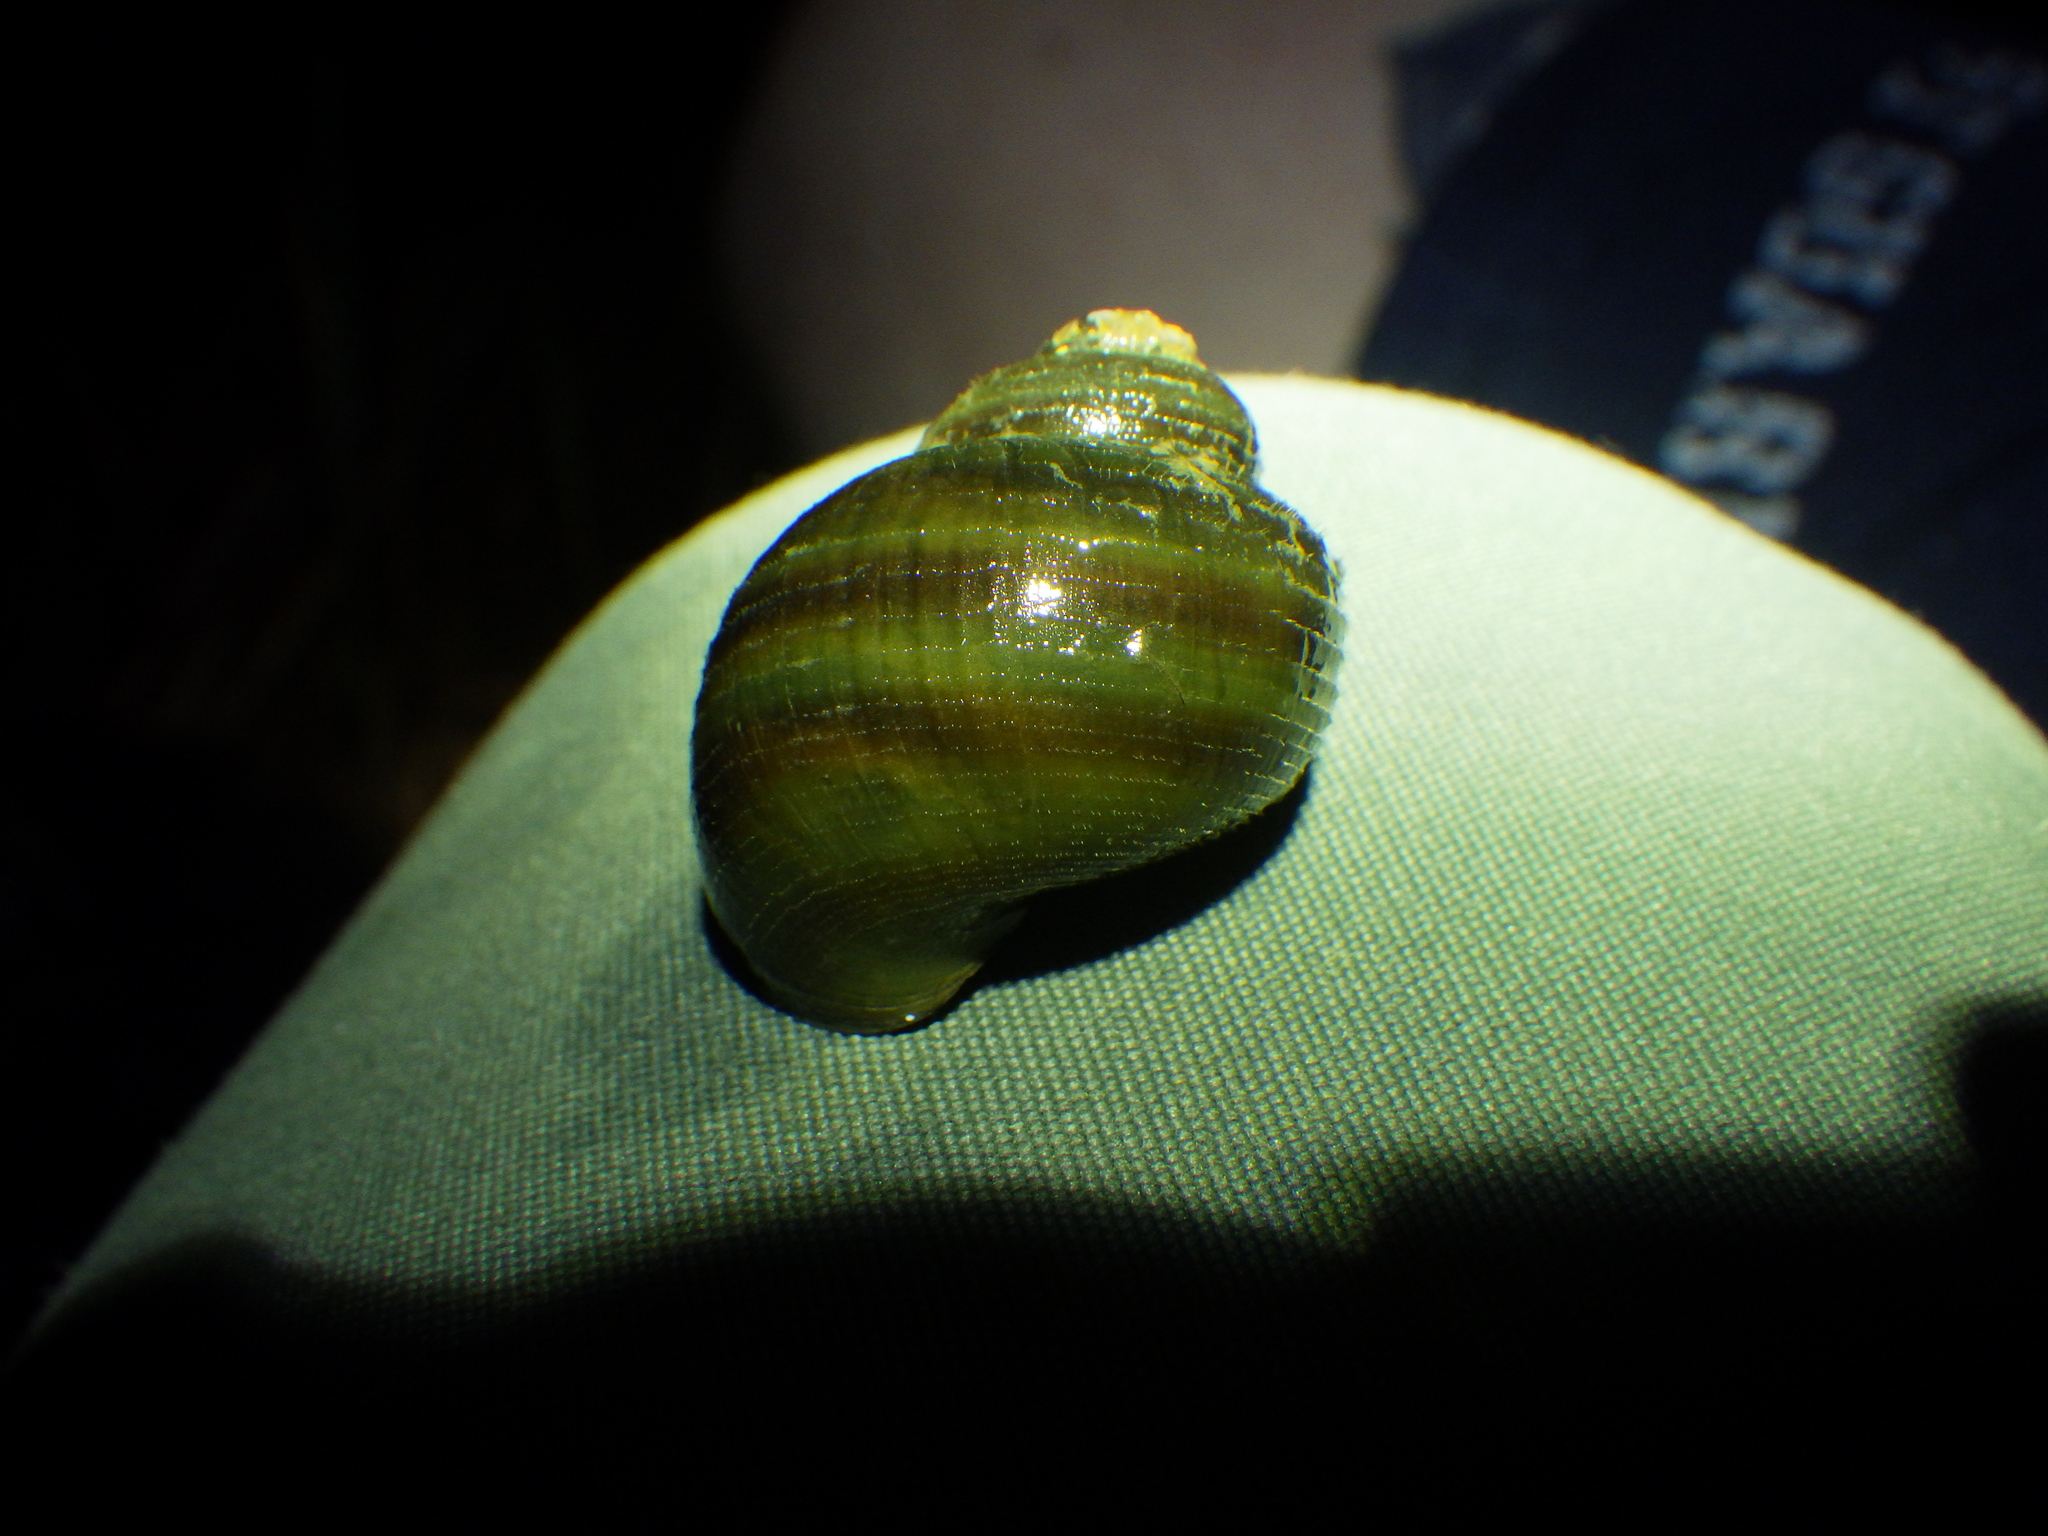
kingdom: Animalia
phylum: Mollusca
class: Gastropoda
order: Architaenioglossa
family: Viviparidae
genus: Callinina
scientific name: Callinina georgiana
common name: Banded mystery snail
